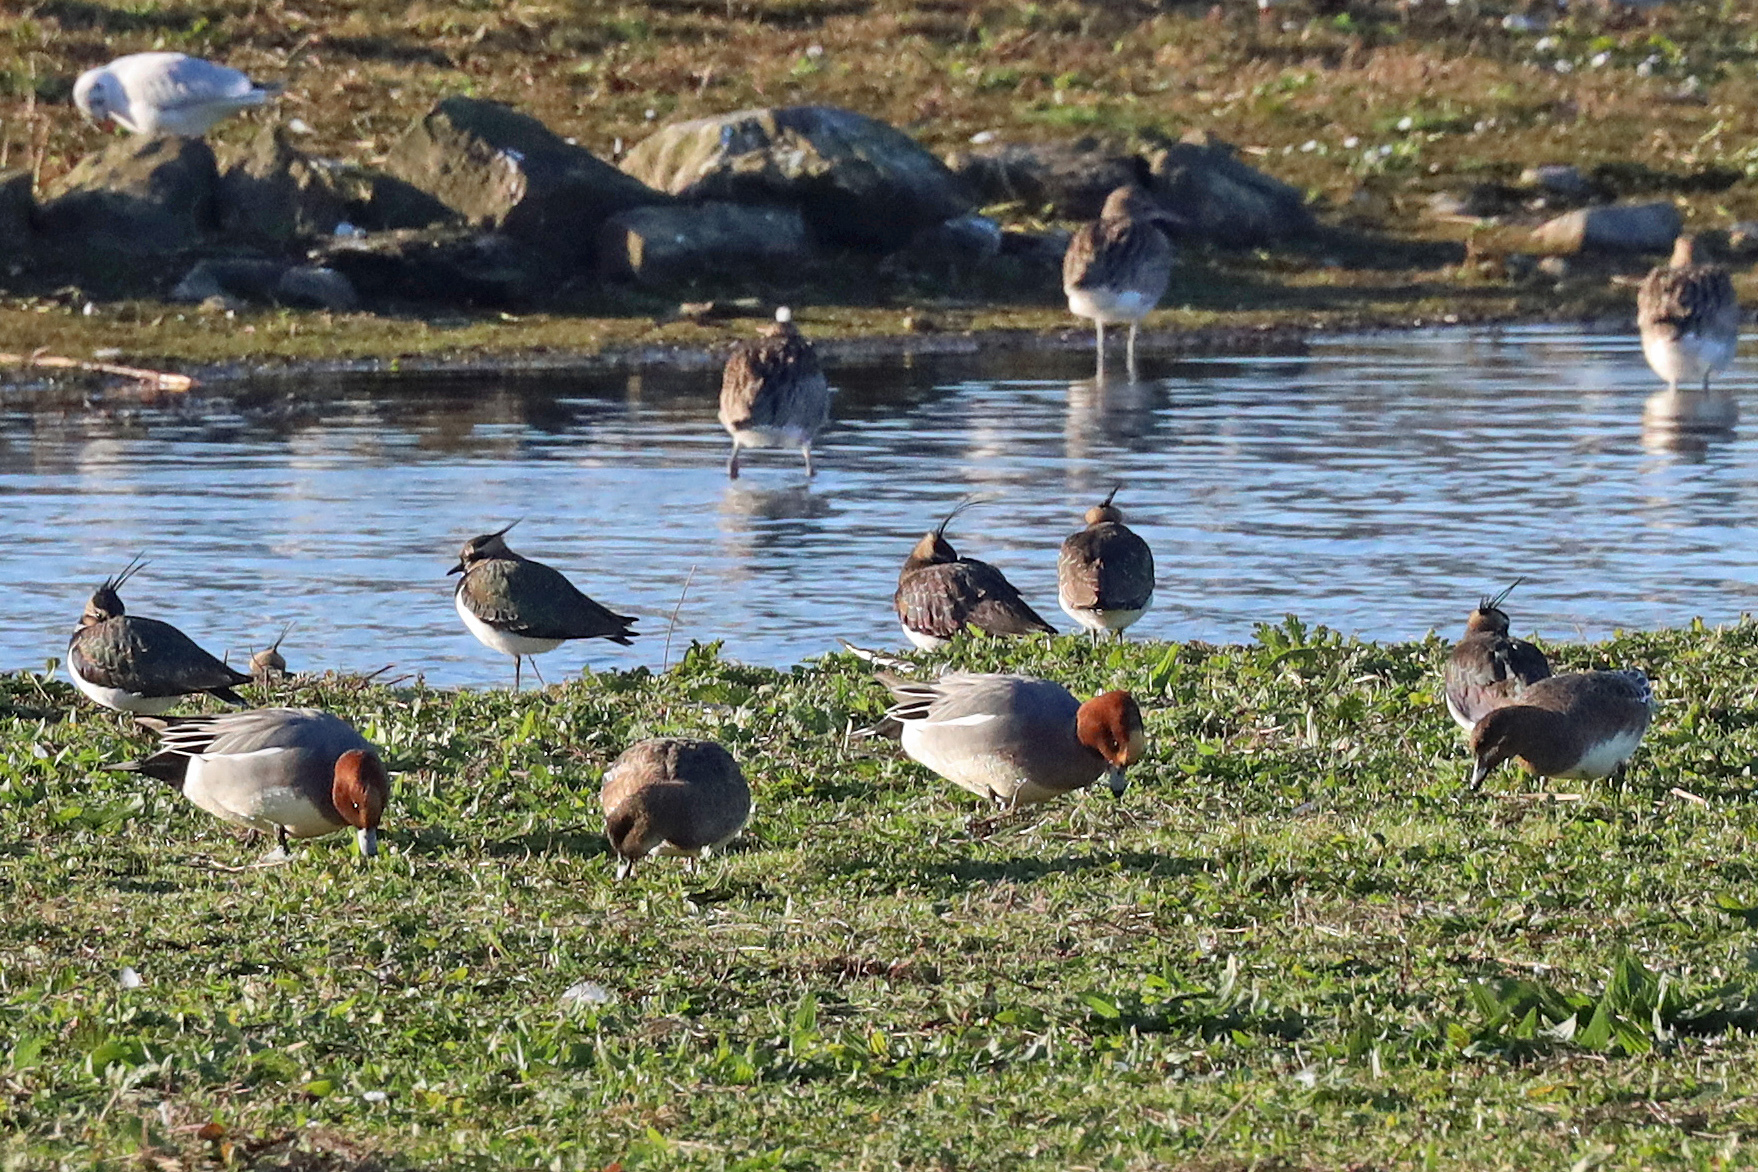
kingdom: Animalia
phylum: Chordata
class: Aves
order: Anseriformes
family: Anatidae
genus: Mareca
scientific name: Mareca penelope
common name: Eurasian wigeon
